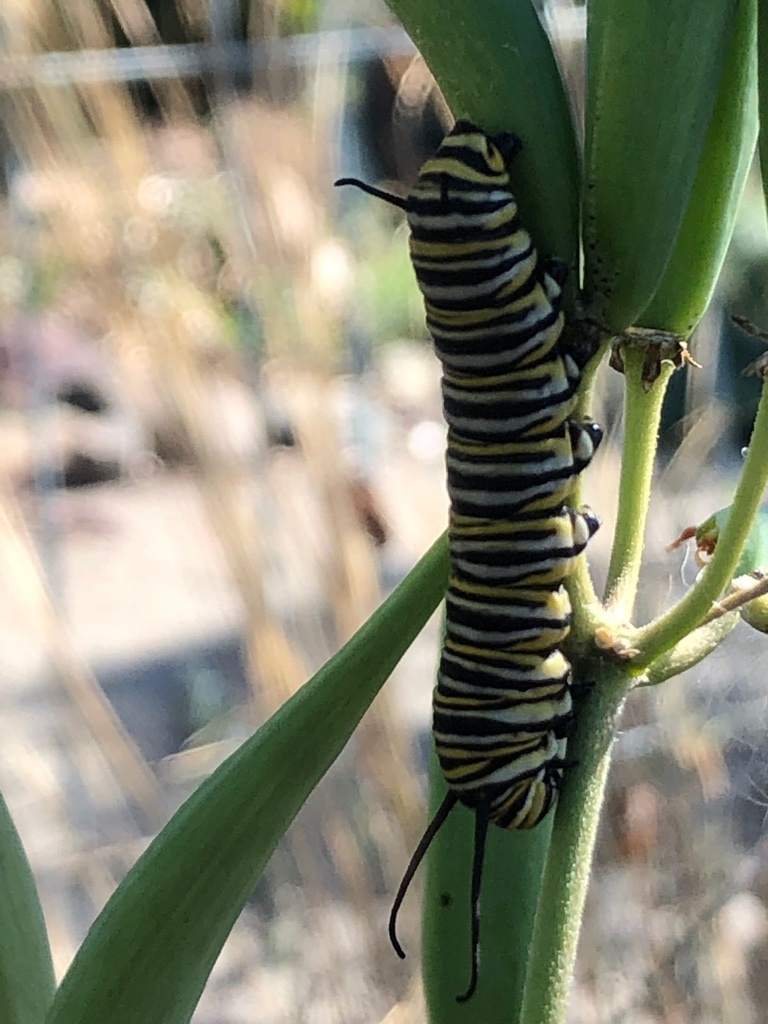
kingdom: Animalia
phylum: Arthropoda
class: Insecta
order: Lepidoptera
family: Nymphalidae
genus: Danaus
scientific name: Danaus plexippus
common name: Monarch
